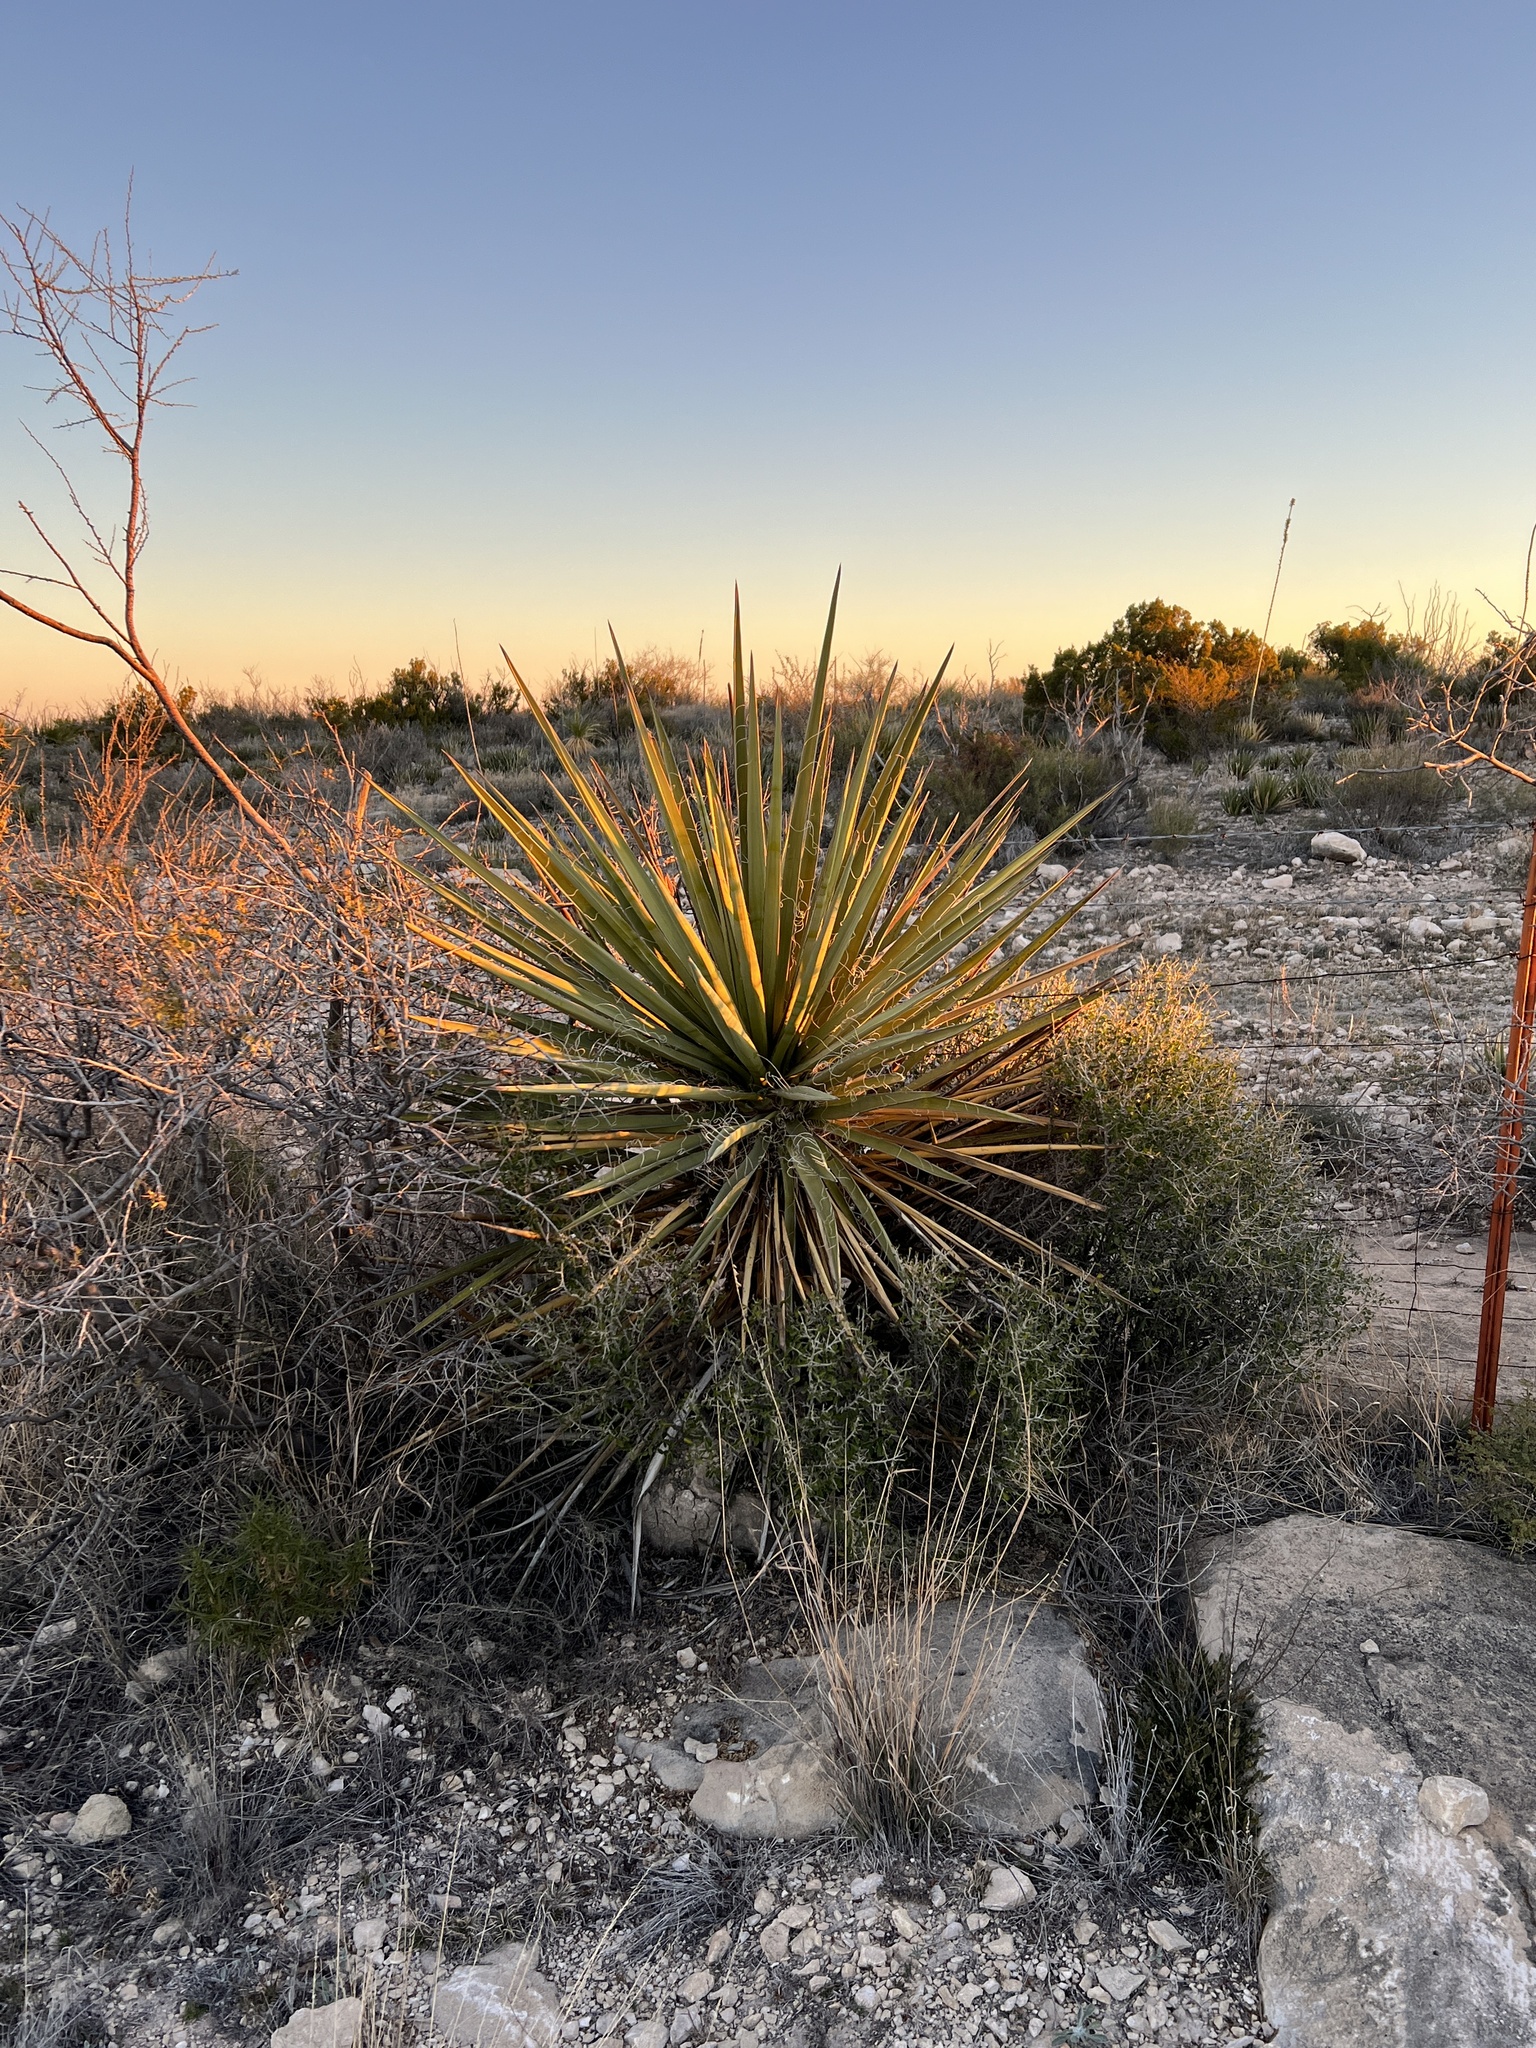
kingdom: Plantae
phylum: Tracheophyta
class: Liliopsida
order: Asparagales
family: Asparagaceae
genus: Yucca
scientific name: Yucca treculiana
